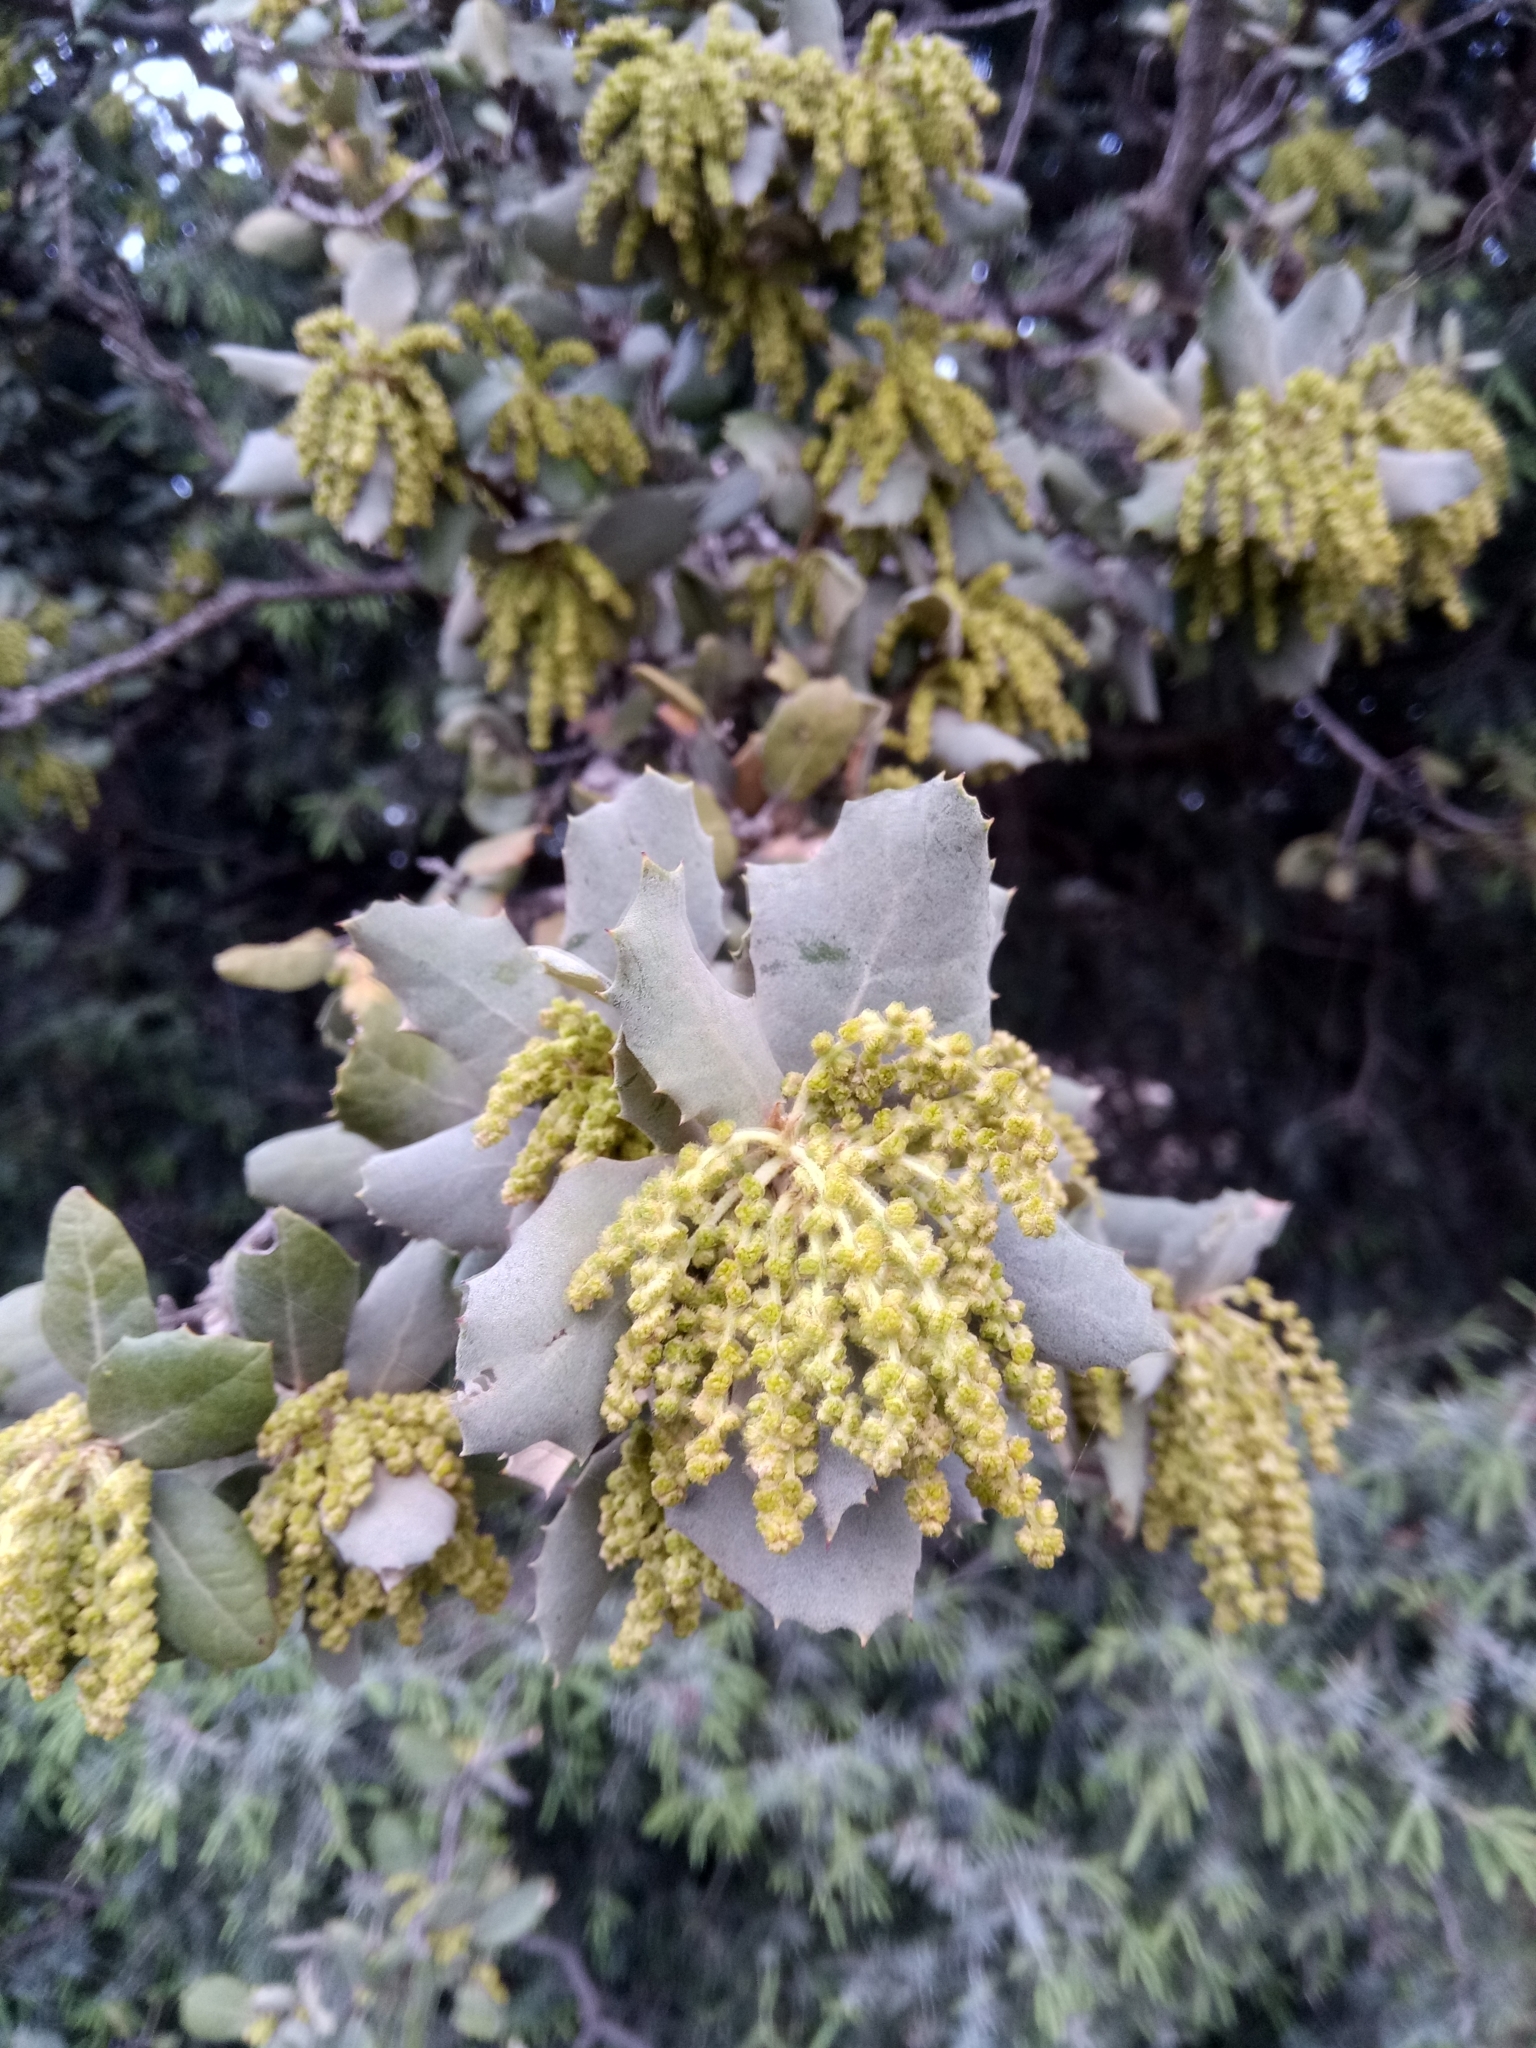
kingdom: Plantae
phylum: Tracheophyta
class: Magnoliopsida
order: Fagales
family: Fagaceae
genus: Quercus
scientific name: Quercus rotundifolia
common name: Holm oak
